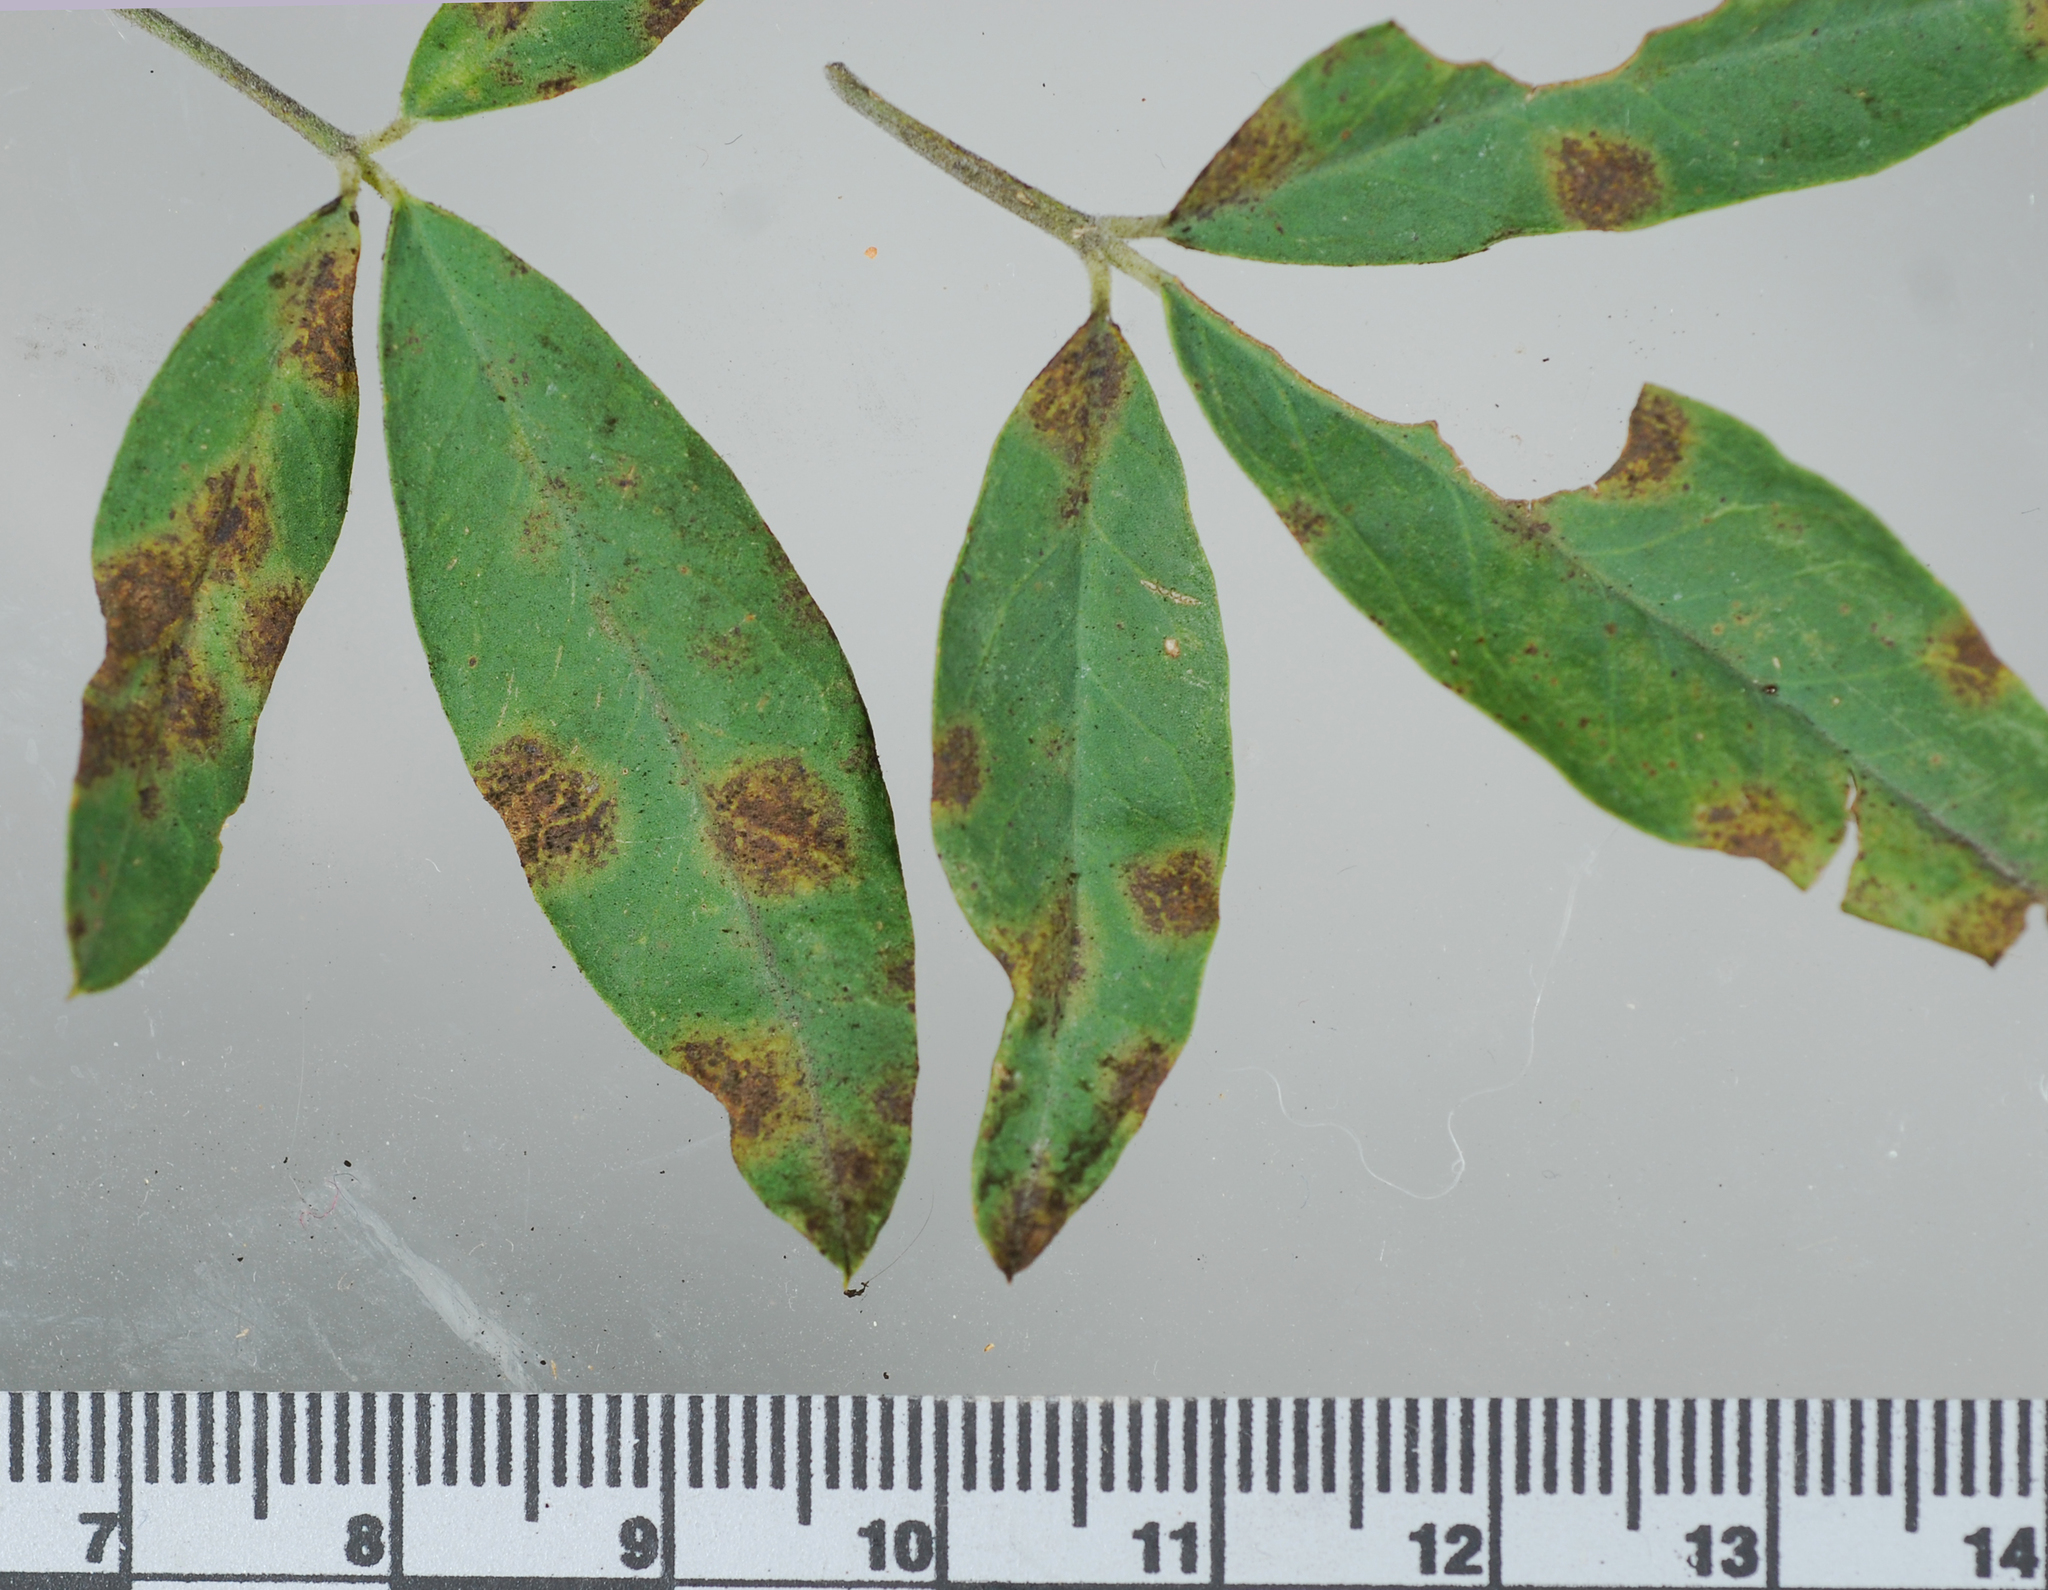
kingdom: Fungi
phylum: Ascomycota
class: Dothideomycetes
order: Mycosphaerellales
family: Mycosphaerellaceae
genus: Pseudocercospora
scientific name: Pseudocercospora nogalesii
